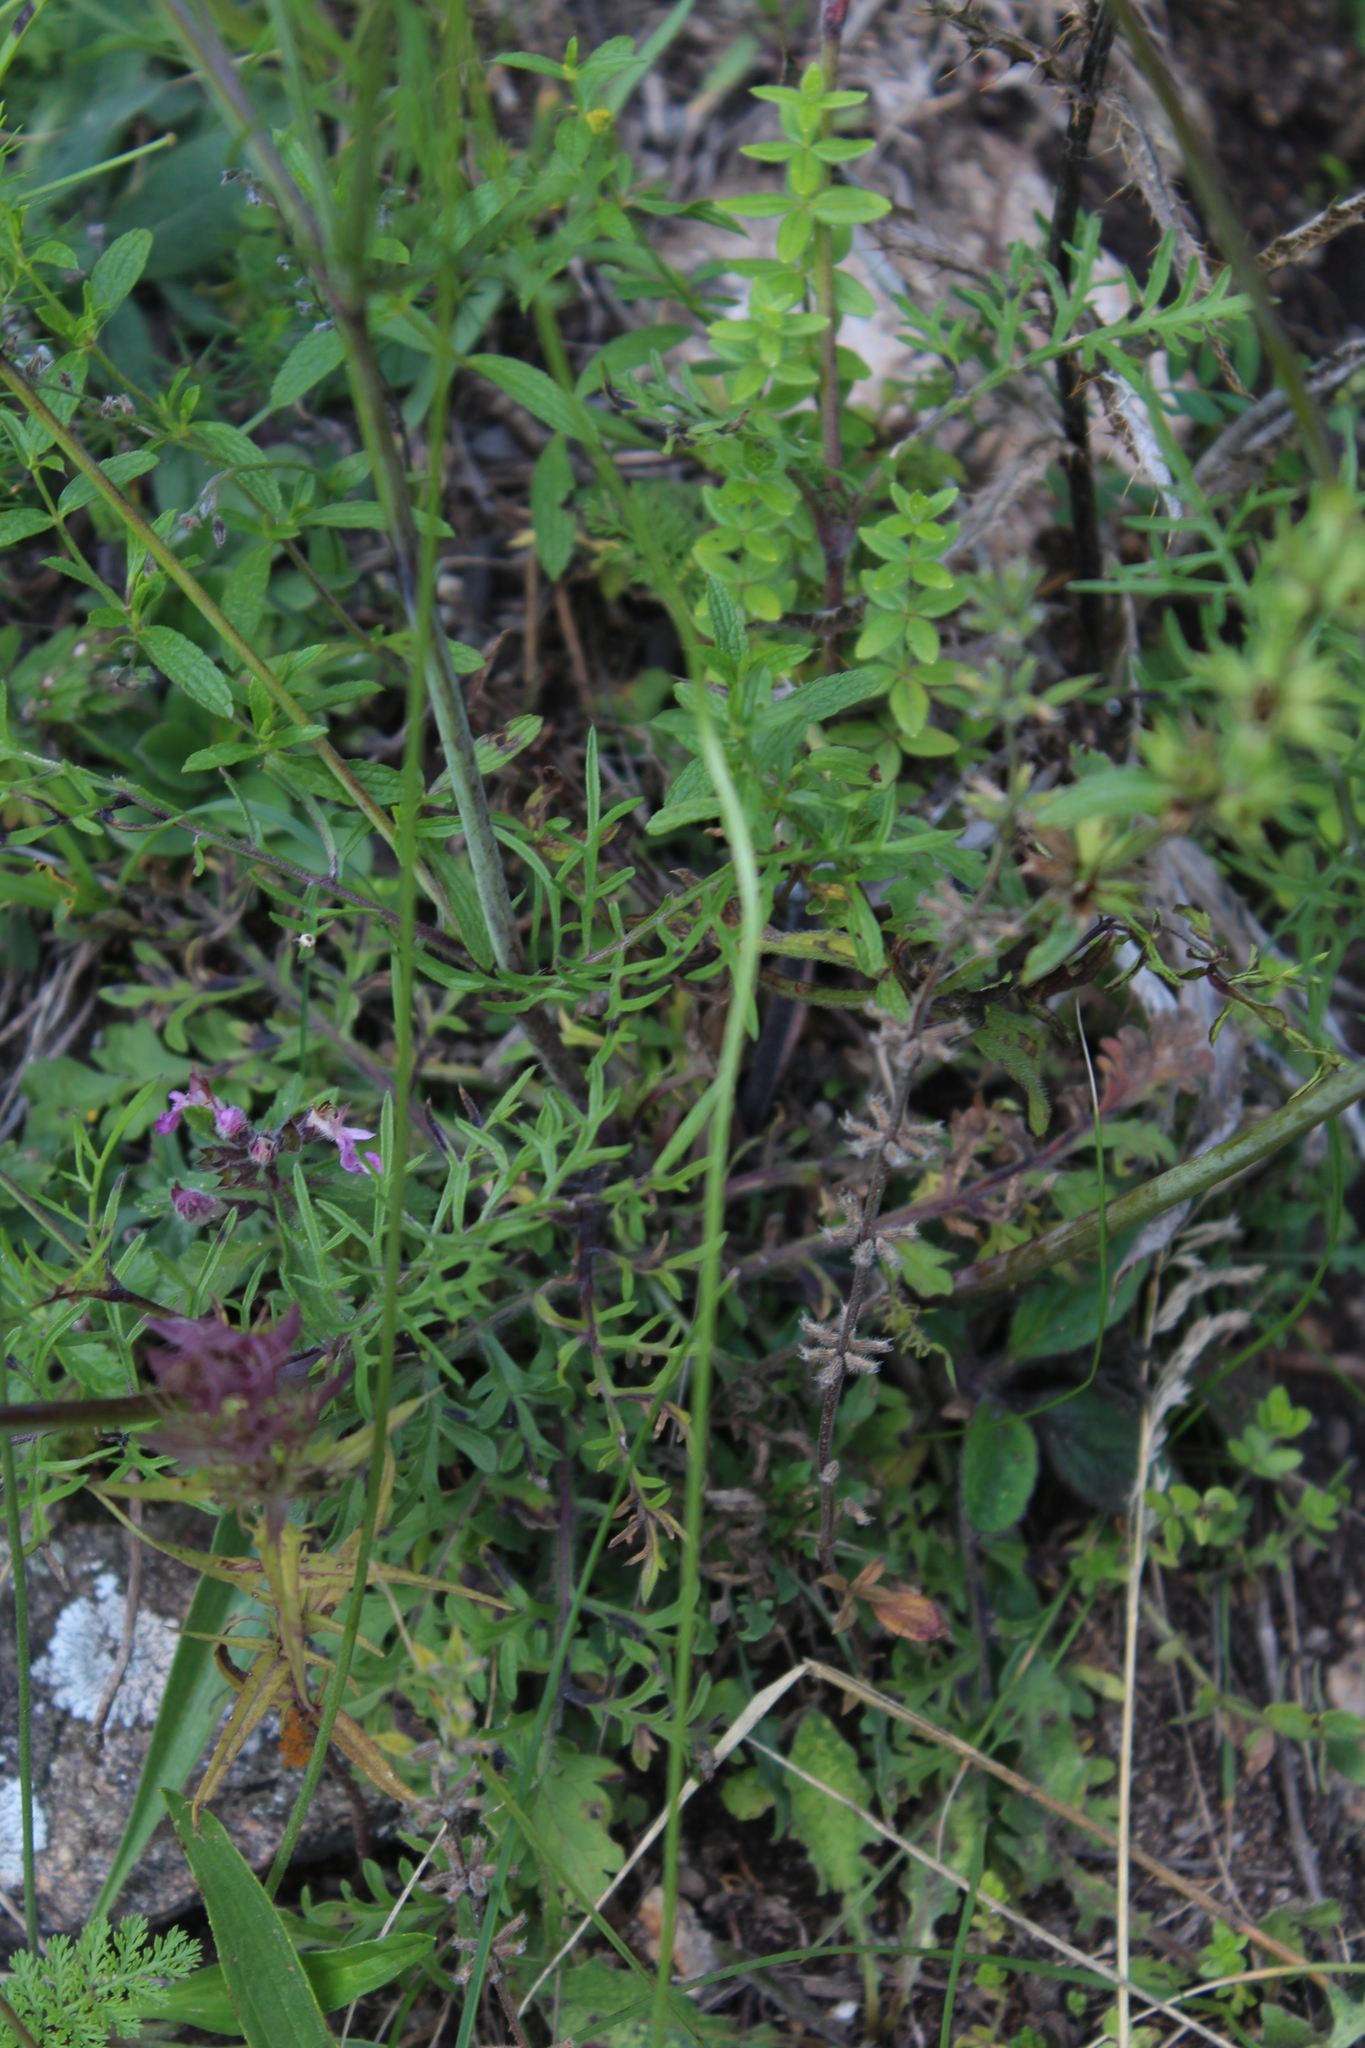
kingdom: Plantae
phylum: Tracheophyta
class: Magnoliopsida
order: Dipsacales
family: Caprifoliaceae
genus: Scabiosa
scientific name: Scabiosa bipinnata
